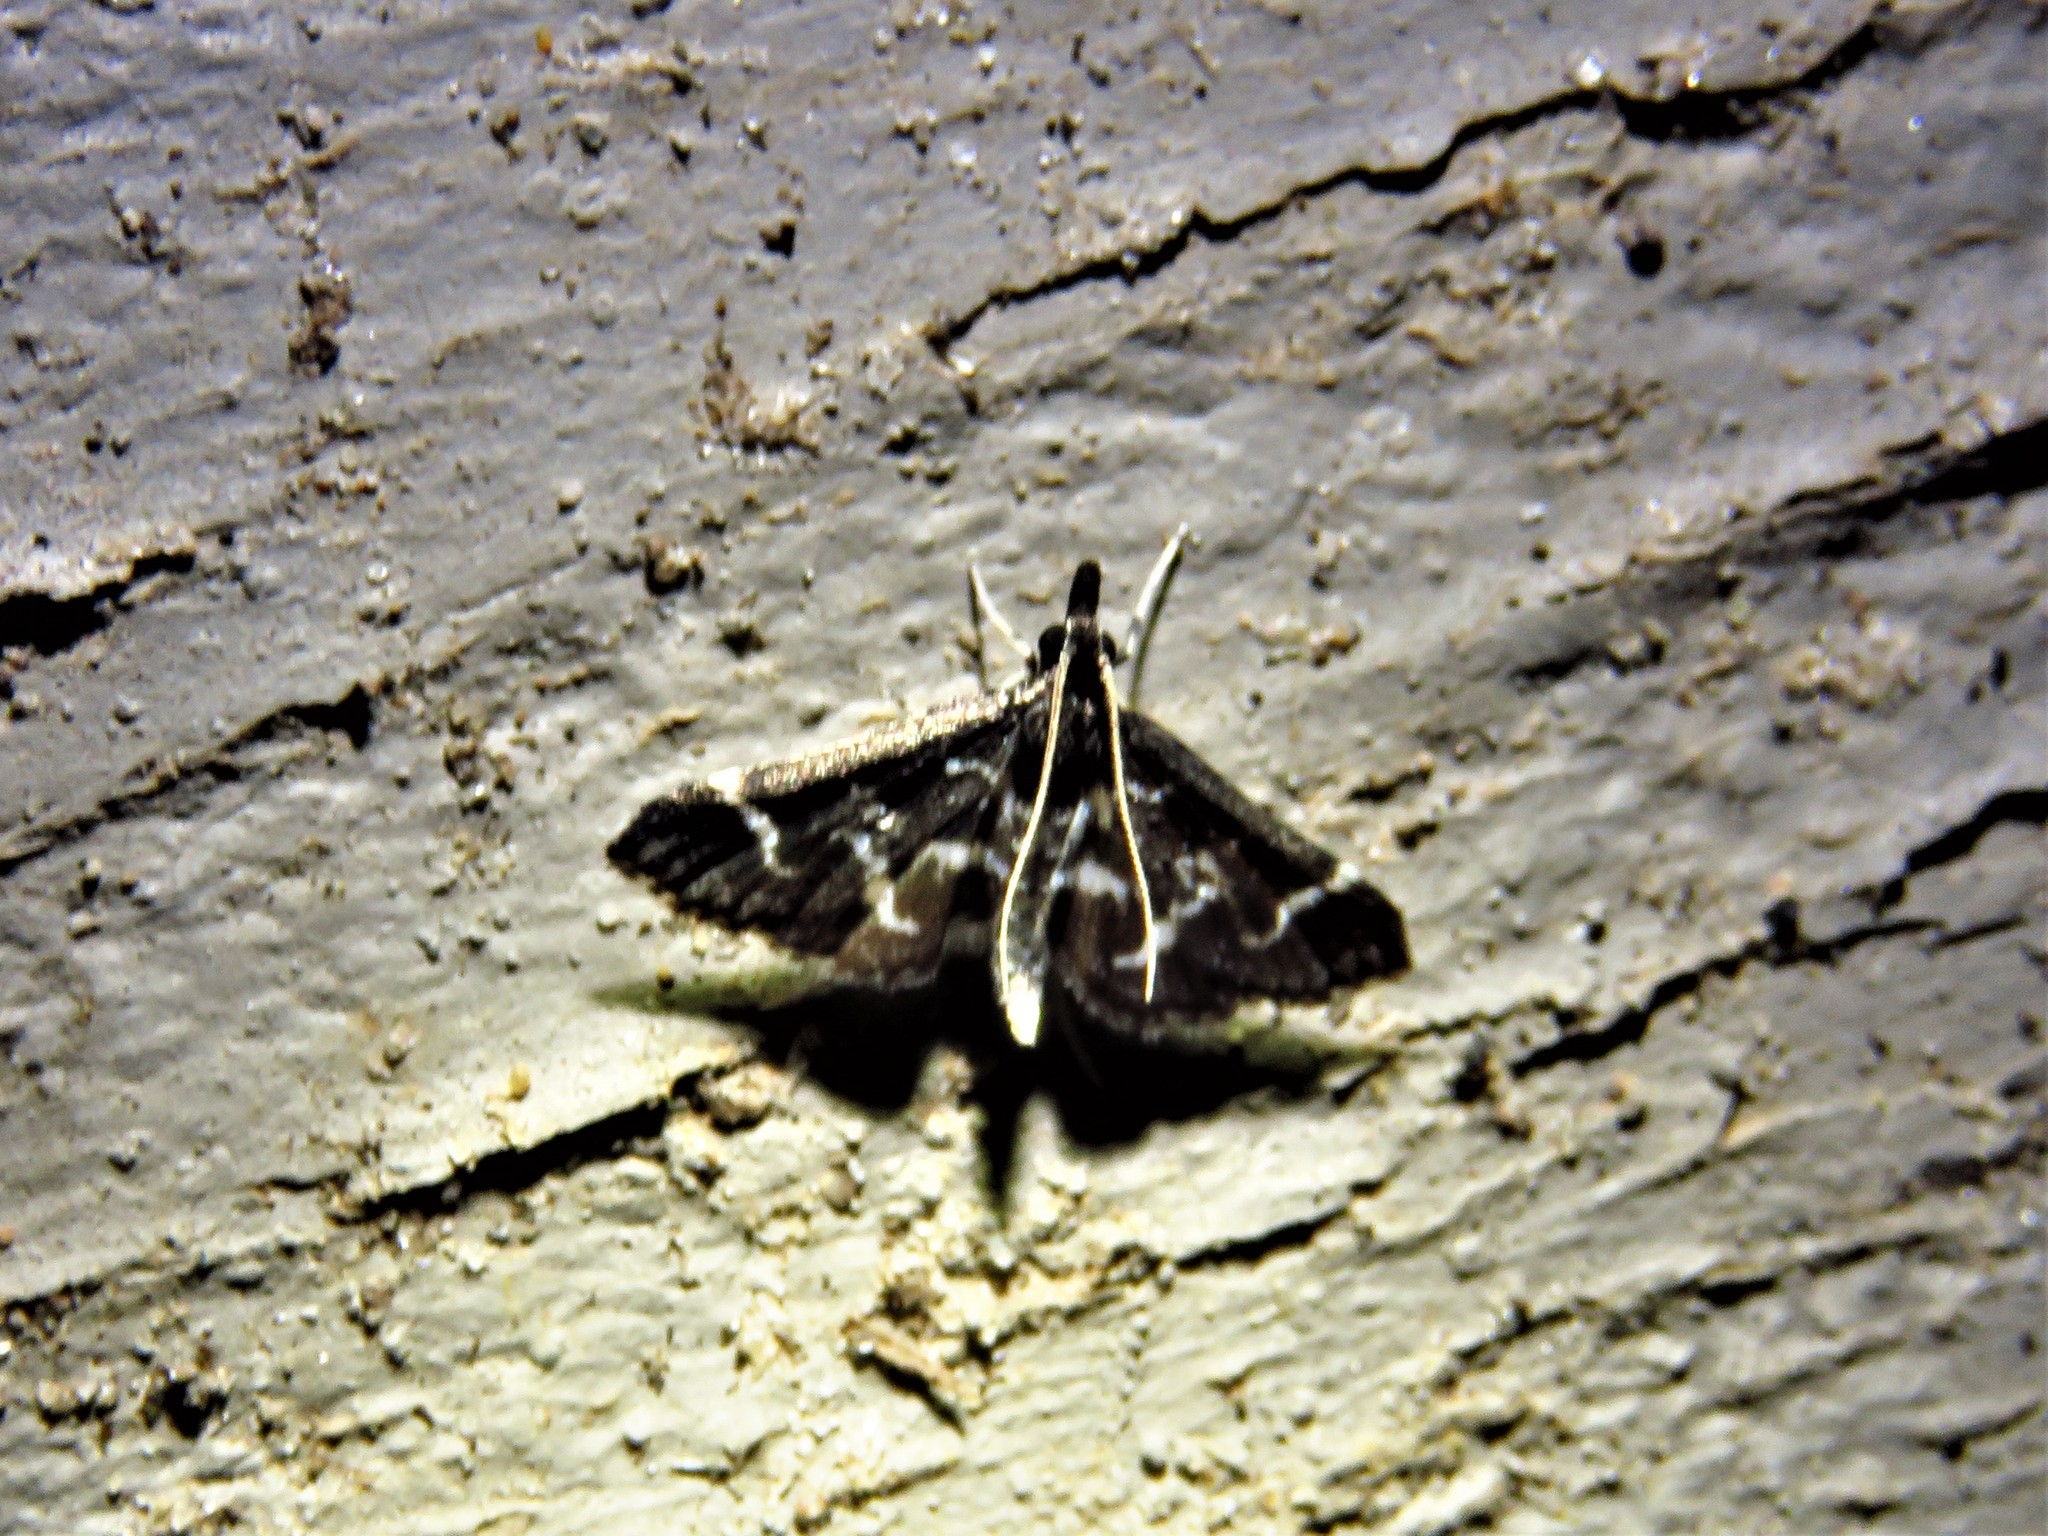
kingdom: Animalia
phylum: Arthropoda
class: Insecta
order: Lepidoptera
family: Crambidae
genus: Diasemiodes
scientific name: Diasemiodes janassialis
